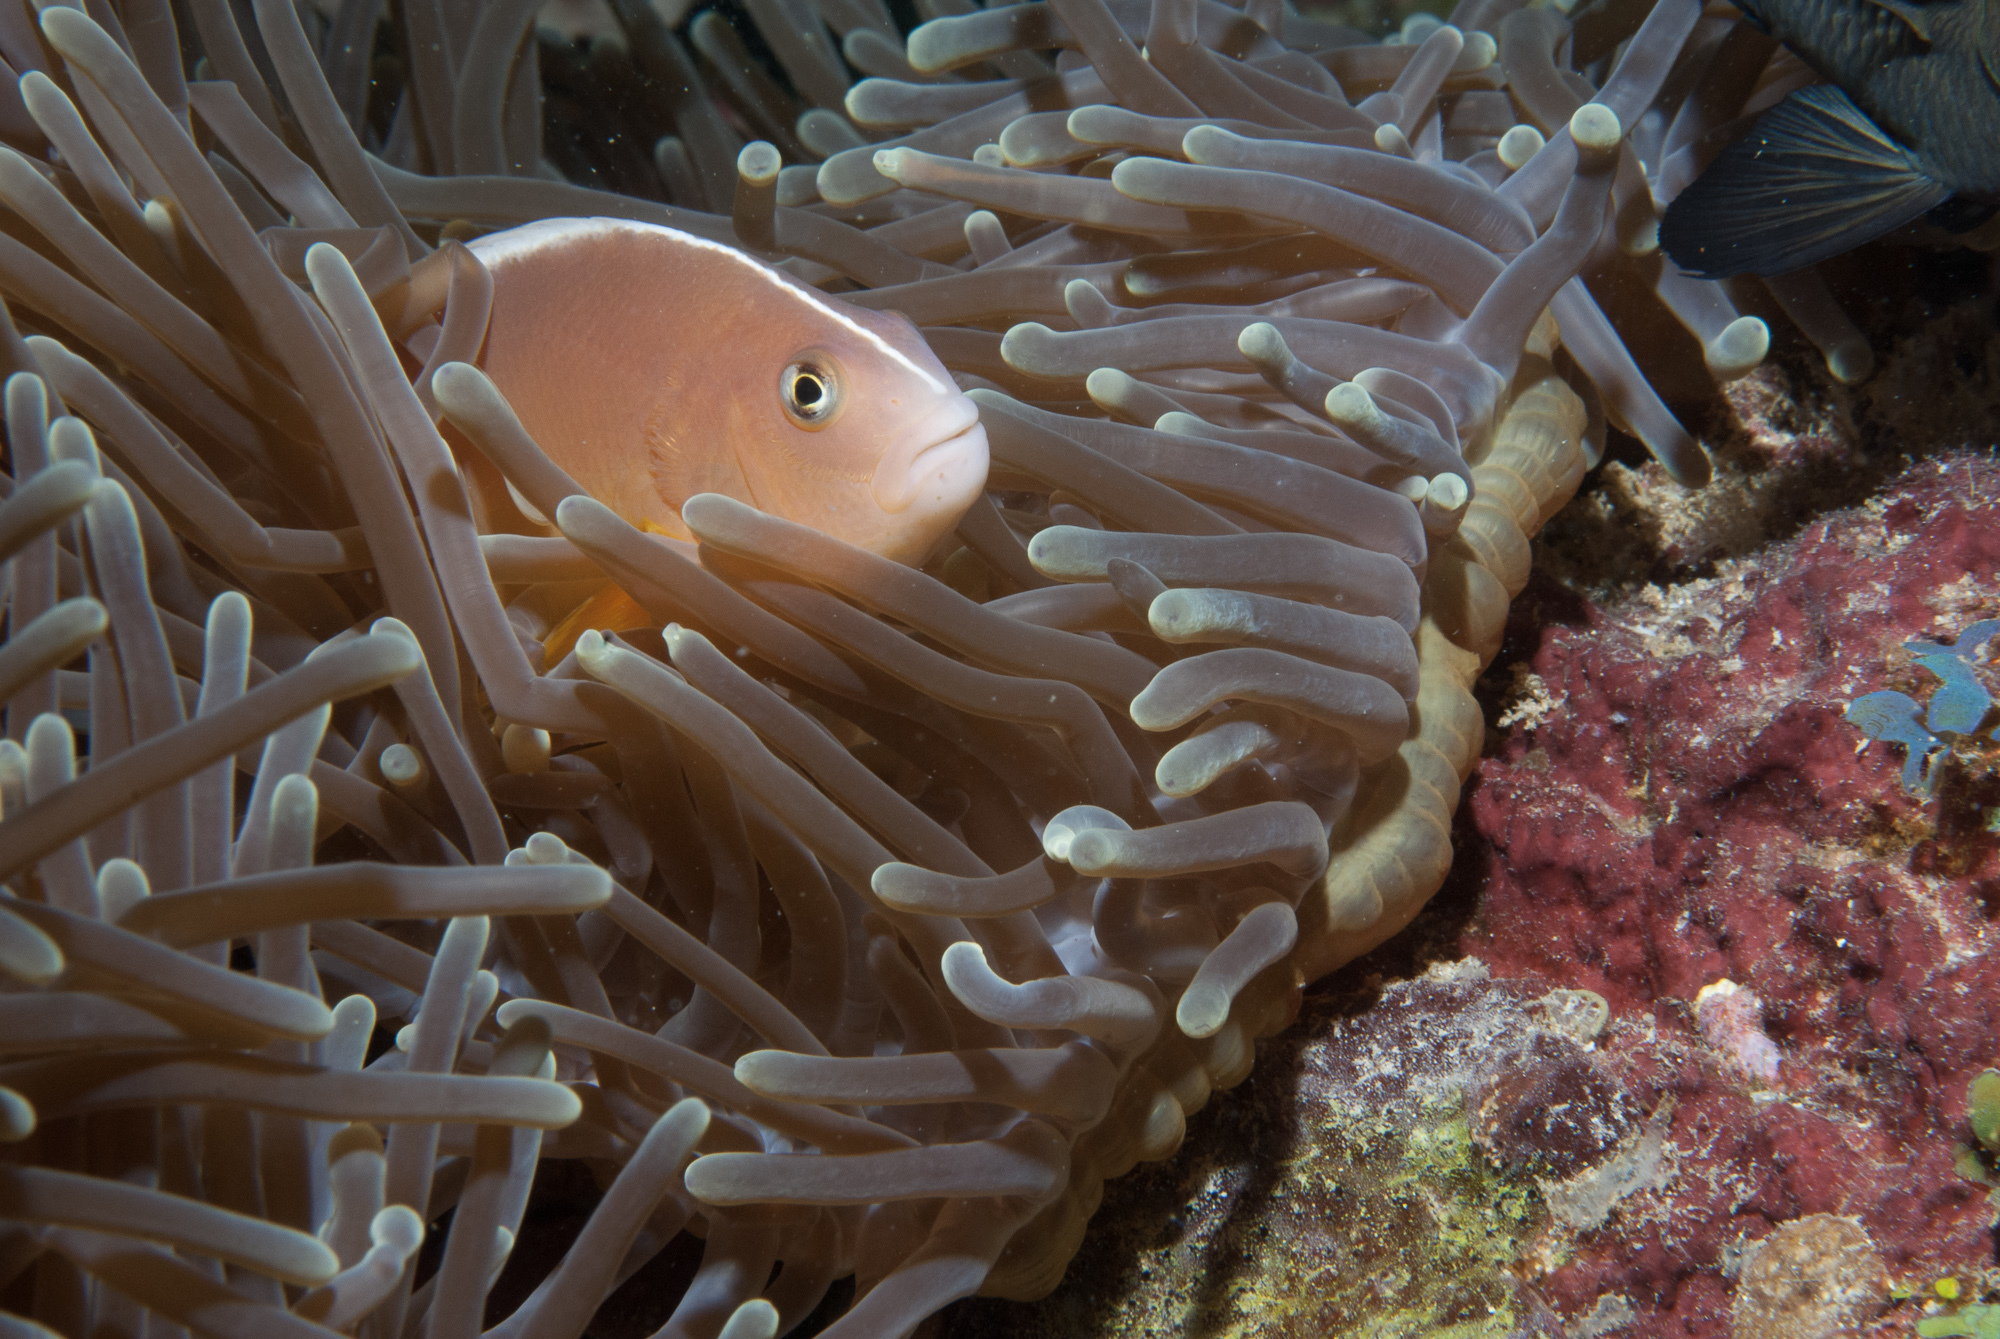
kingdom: Animalia
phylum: Chordata
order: Perciformes
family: Pomacentridae
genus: Amphiprion
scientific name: Amphiprion akallopisos
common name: Skunk clownfish
